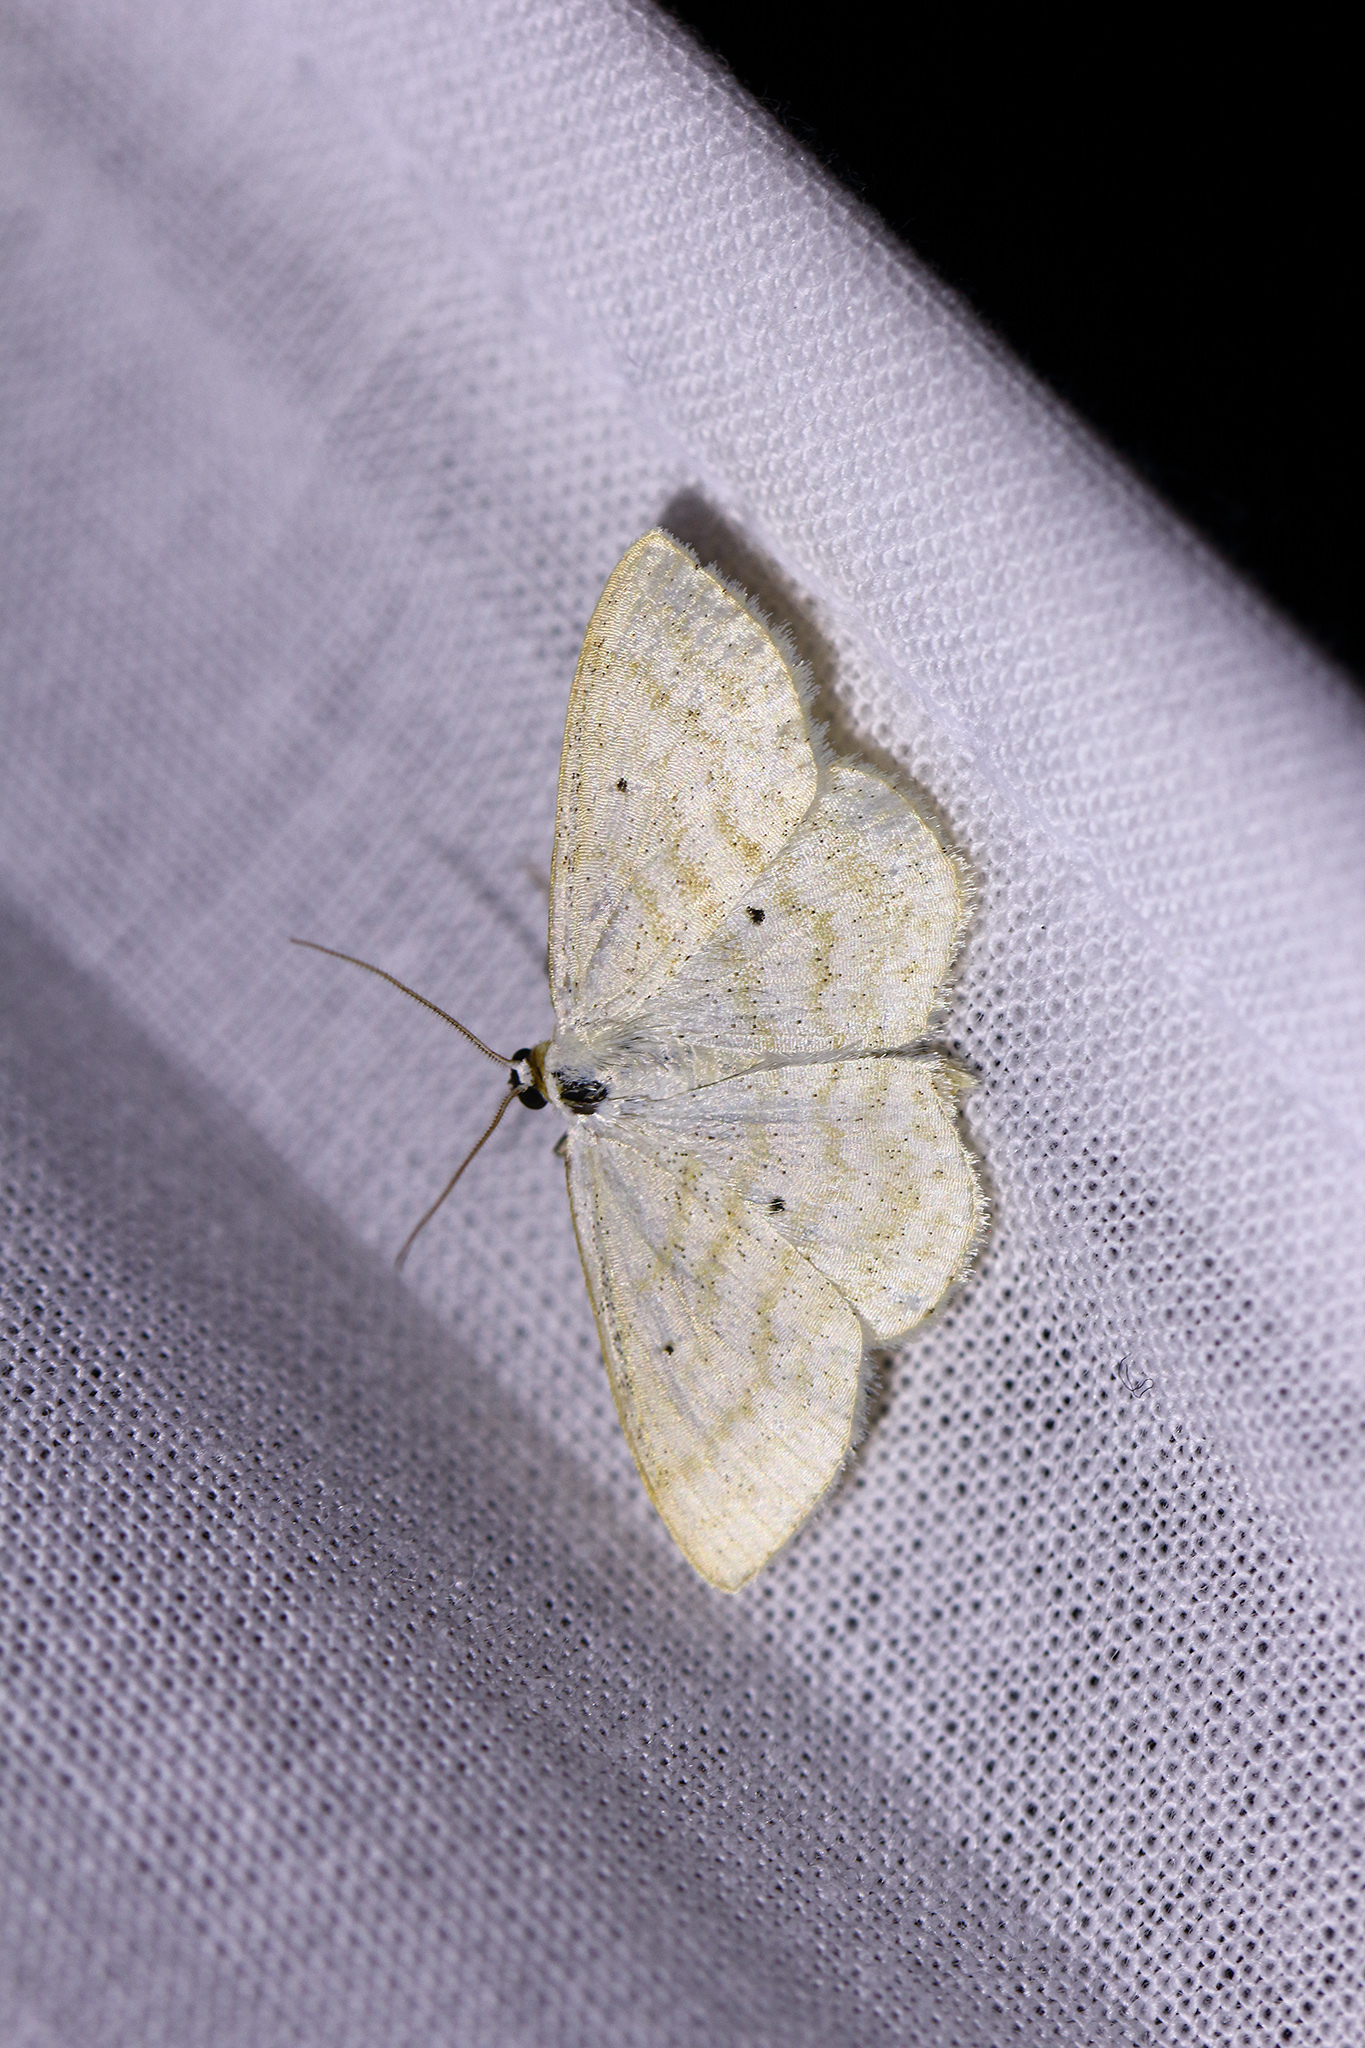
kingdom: Animalia
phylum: Arthropoda
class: Insecta
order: Lepidoptera
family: Geometridae
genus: Scopula
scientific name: Scopula immutata
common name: Lesser cream wave
